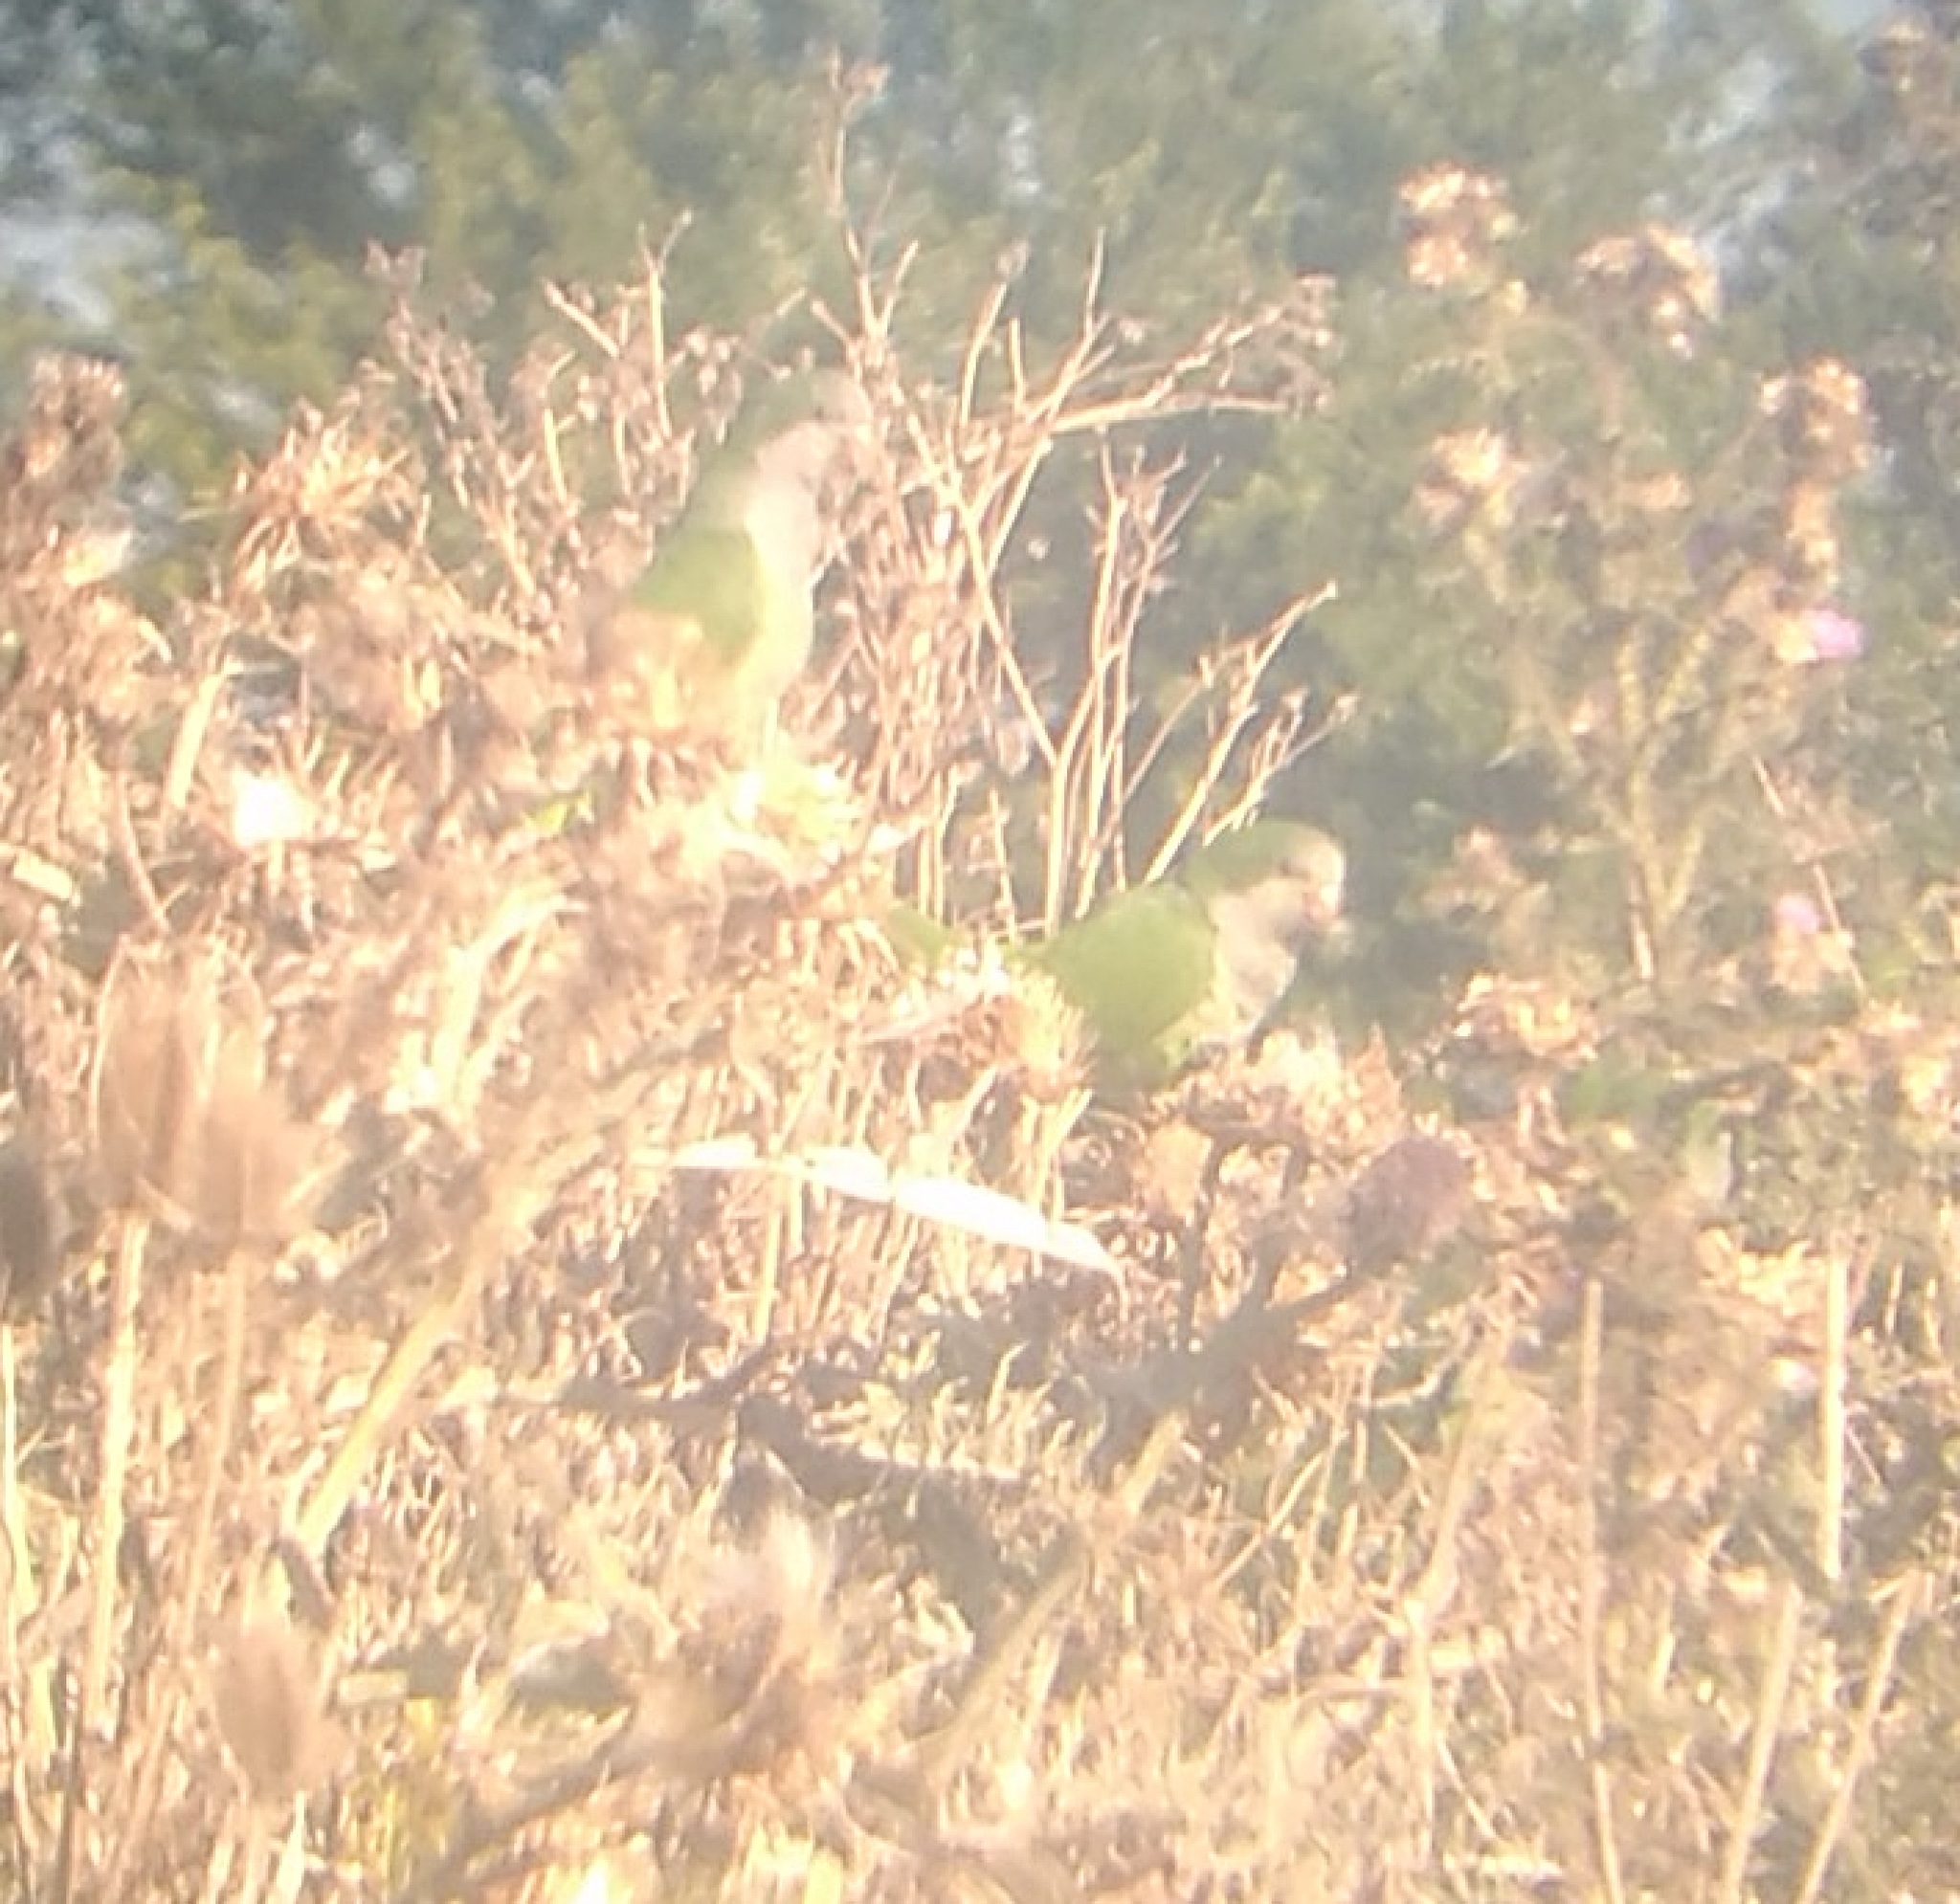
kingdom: Animalia
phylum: Chordata
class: Aves
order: Psittaciformes
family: Psittacidae
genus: Myiopsitta
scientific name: Myiopsitta monachus
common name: Monk parakeet
